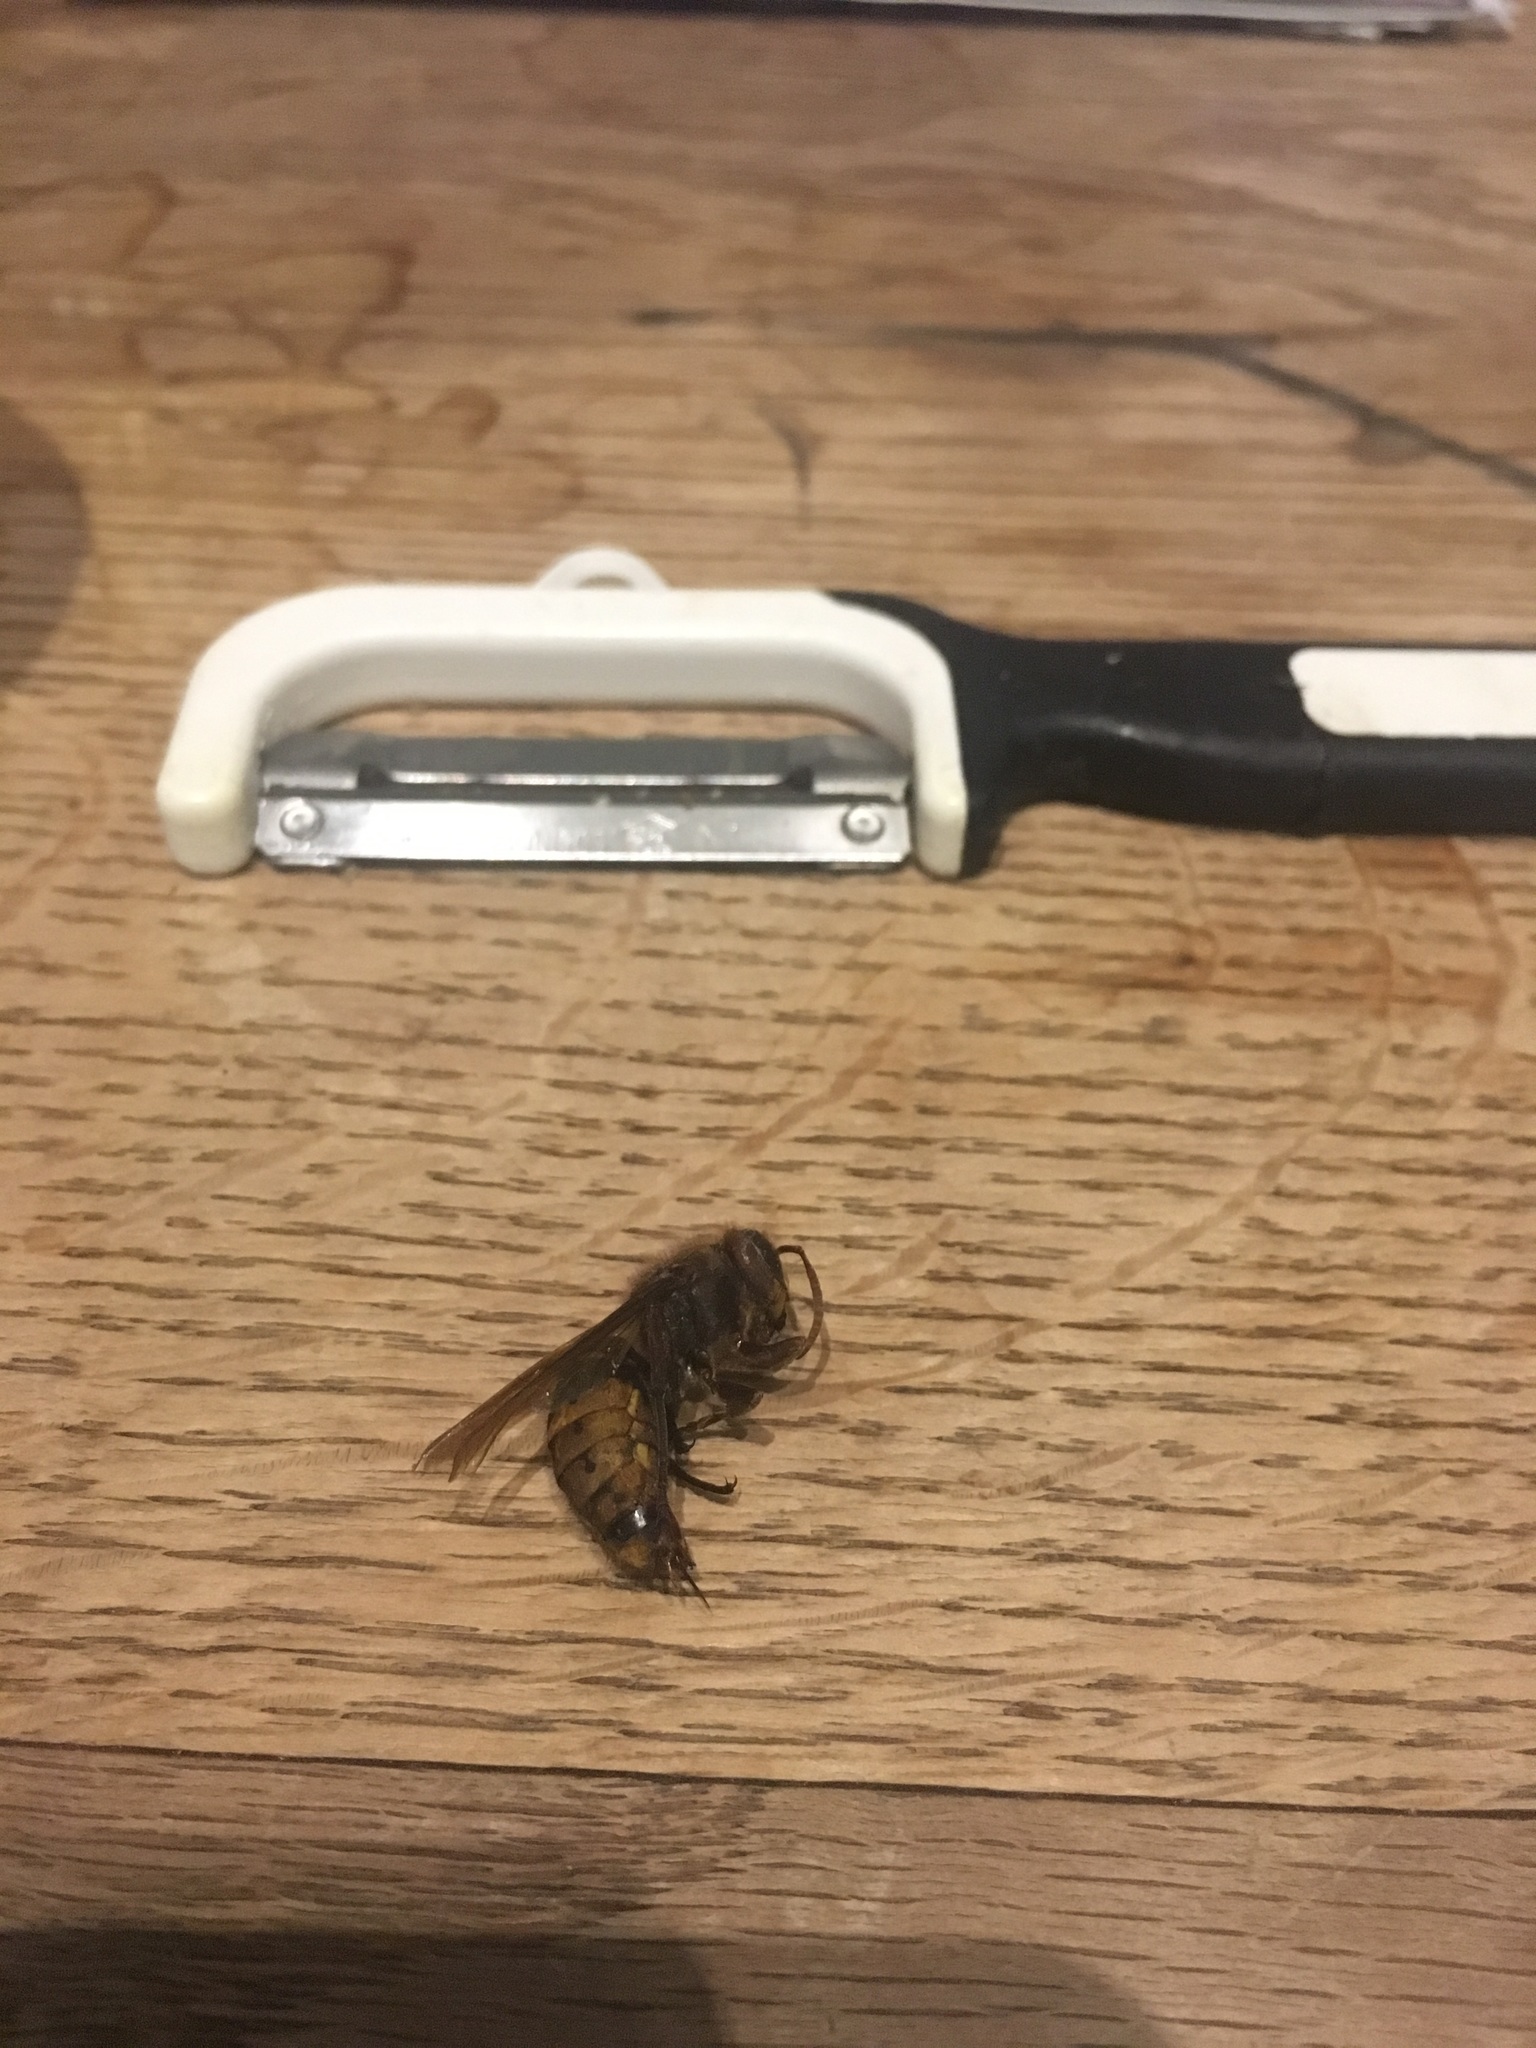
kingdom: Animalia
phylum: Arthropoda
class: Insecta
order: Hymenoptera
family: Vespidae
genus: Vespa
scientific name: Vespa crabro
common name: Hornet
